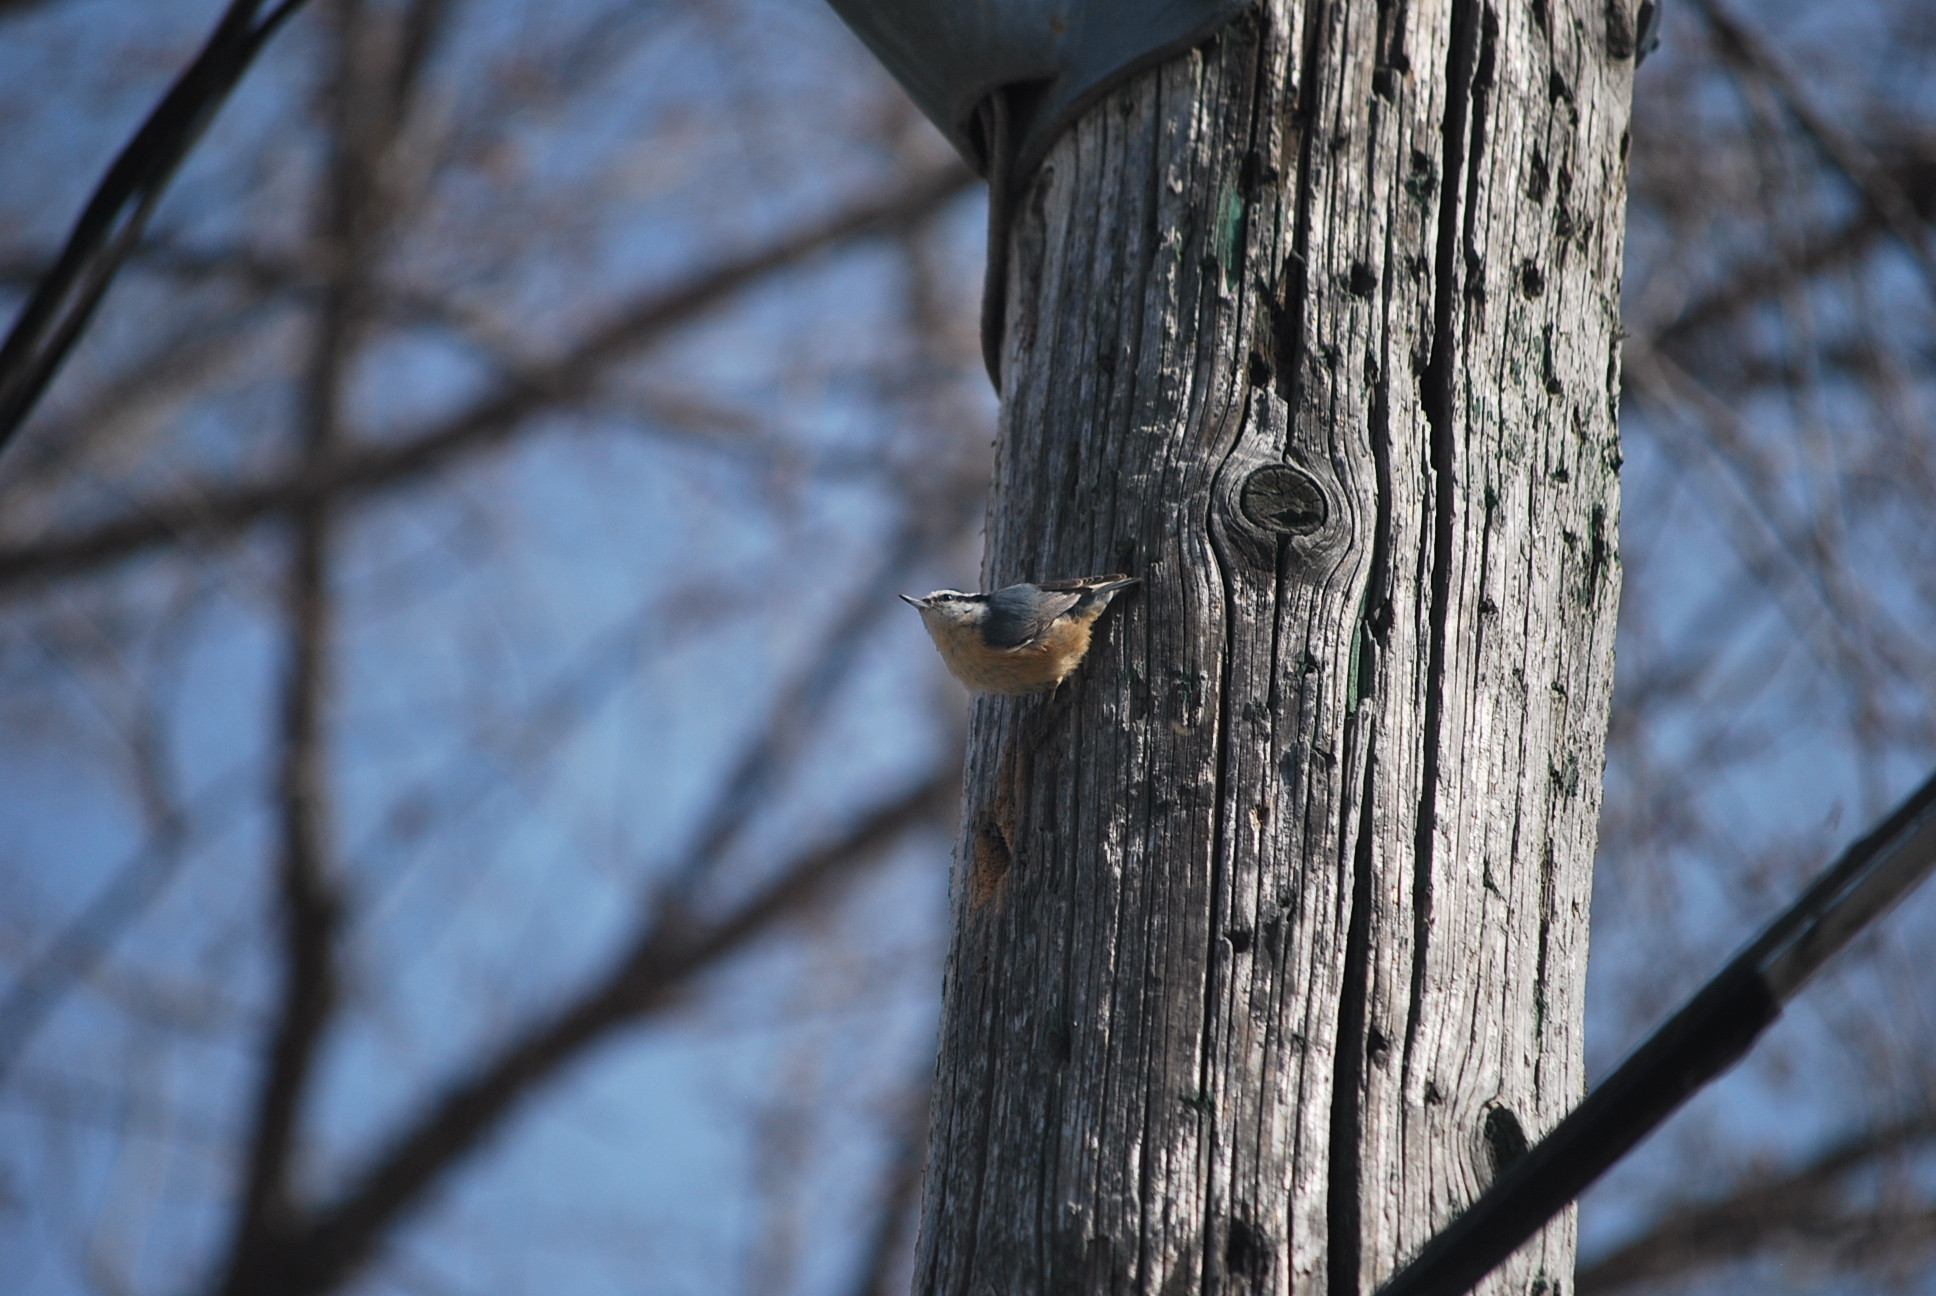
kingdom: Animalia
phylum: Chordata
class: Aves
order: Passeriformes
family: Sittidae
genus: Sitta
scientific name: Sitta canadensis
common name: Red-breasted nuthatch
